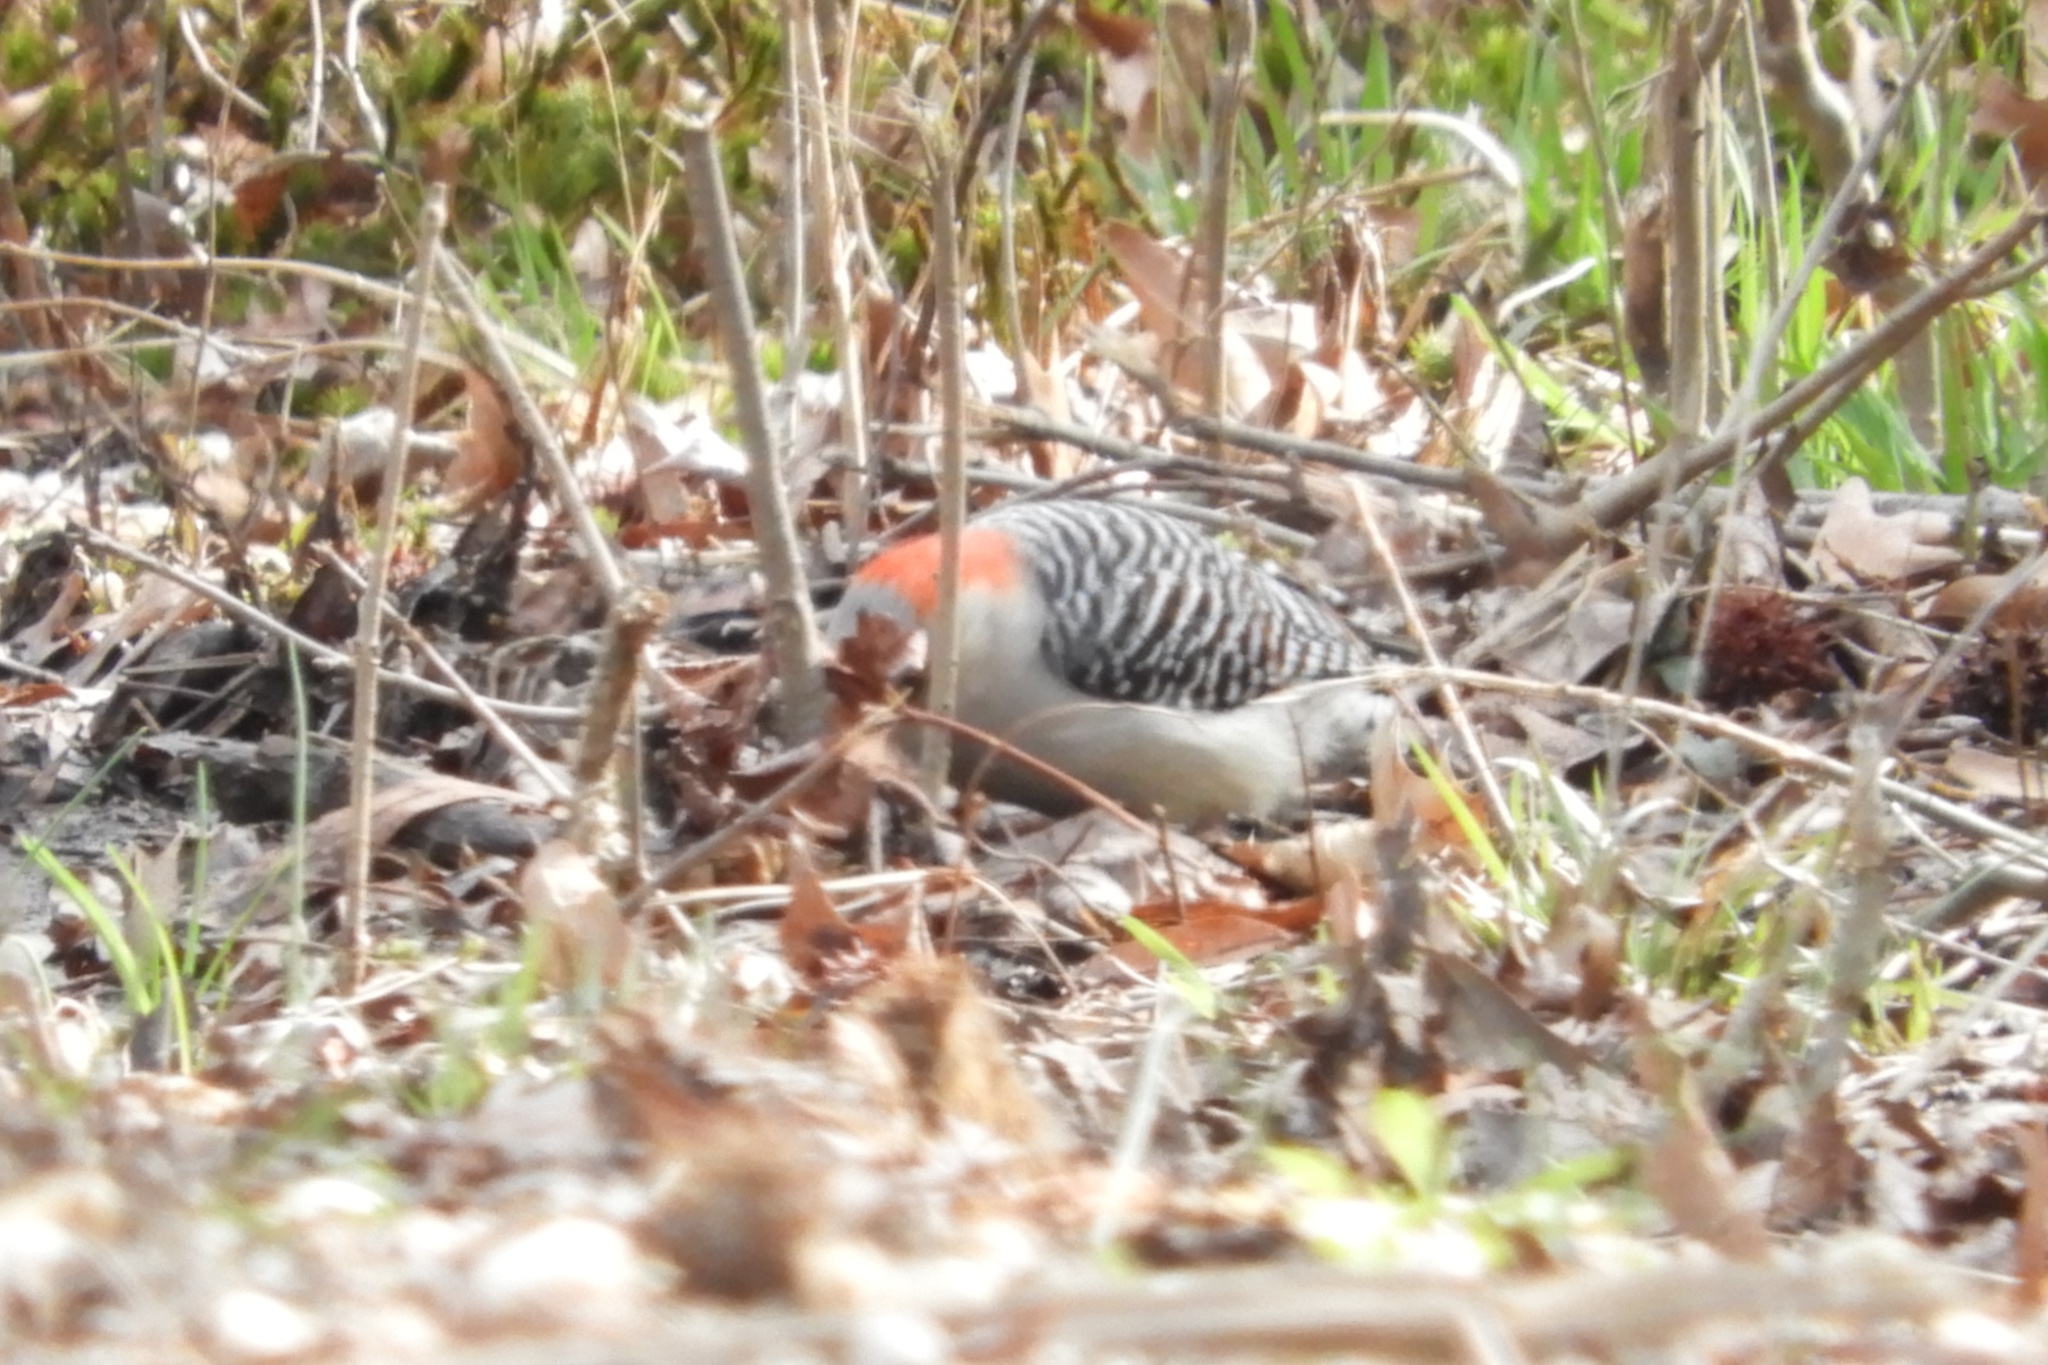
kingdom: Animalia
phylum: Chordata
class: Aves
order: Piciformes
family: Picidae
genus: Melanerpes
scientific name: Melanerpes carolinus
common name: Red-bellied woodpecker
